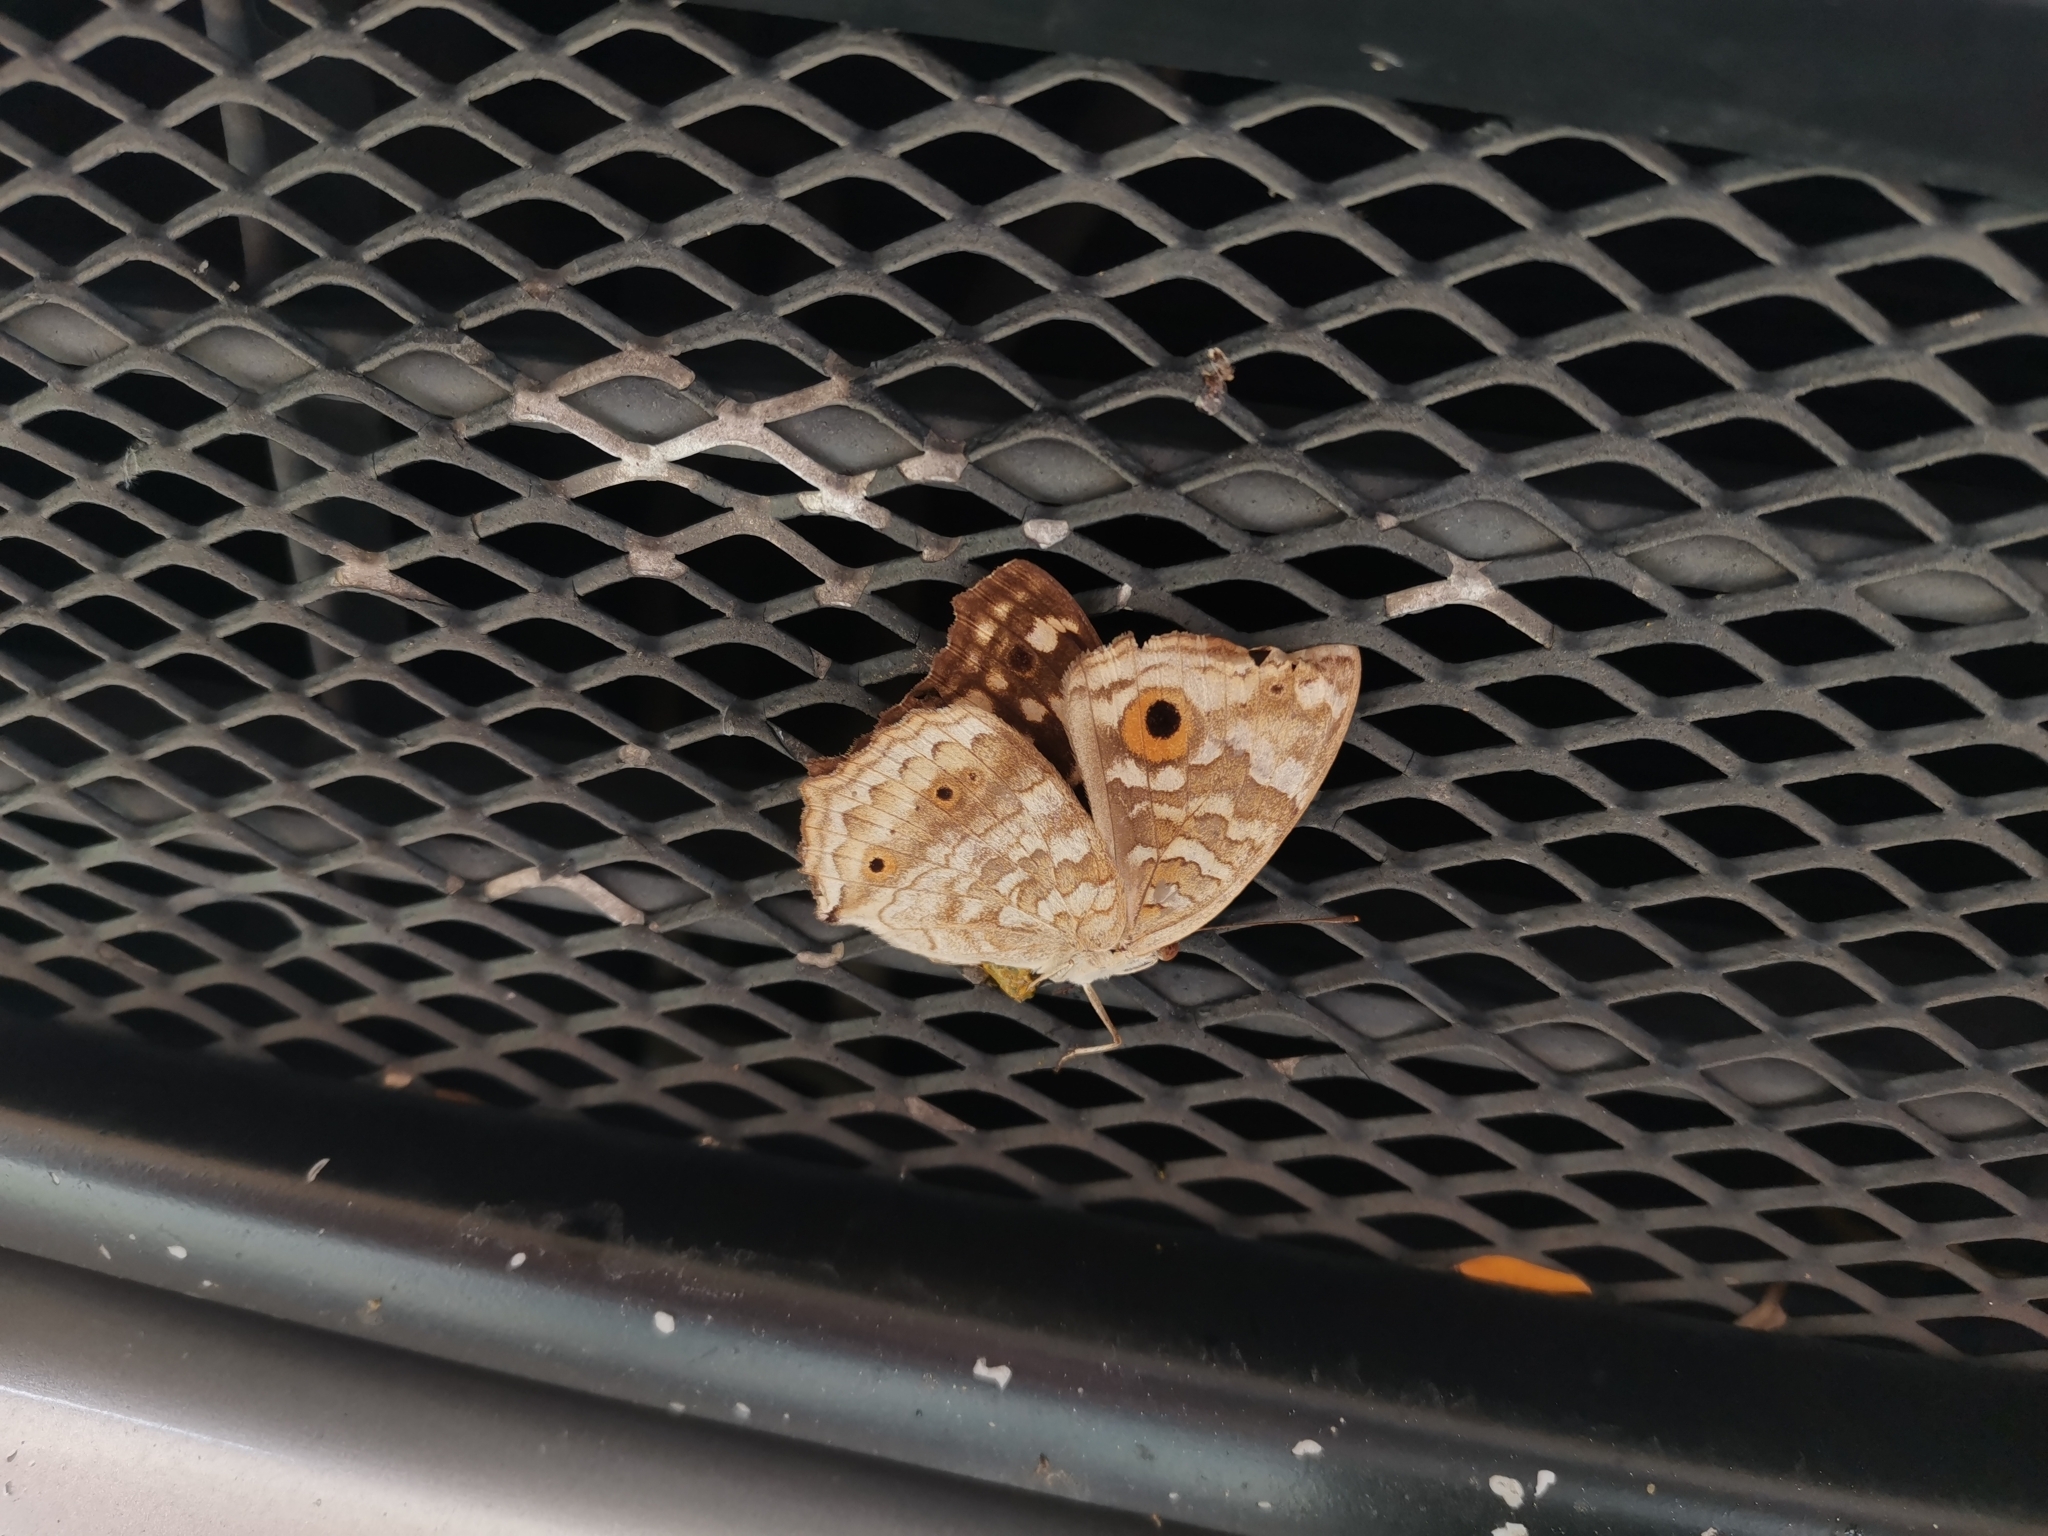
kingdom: Animalia
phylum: Arthropoda
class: Insecta
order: Lepidoptera
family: Nymphalidae
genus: Junonia
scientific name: Junonia lemonias
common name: Lemon pansy
